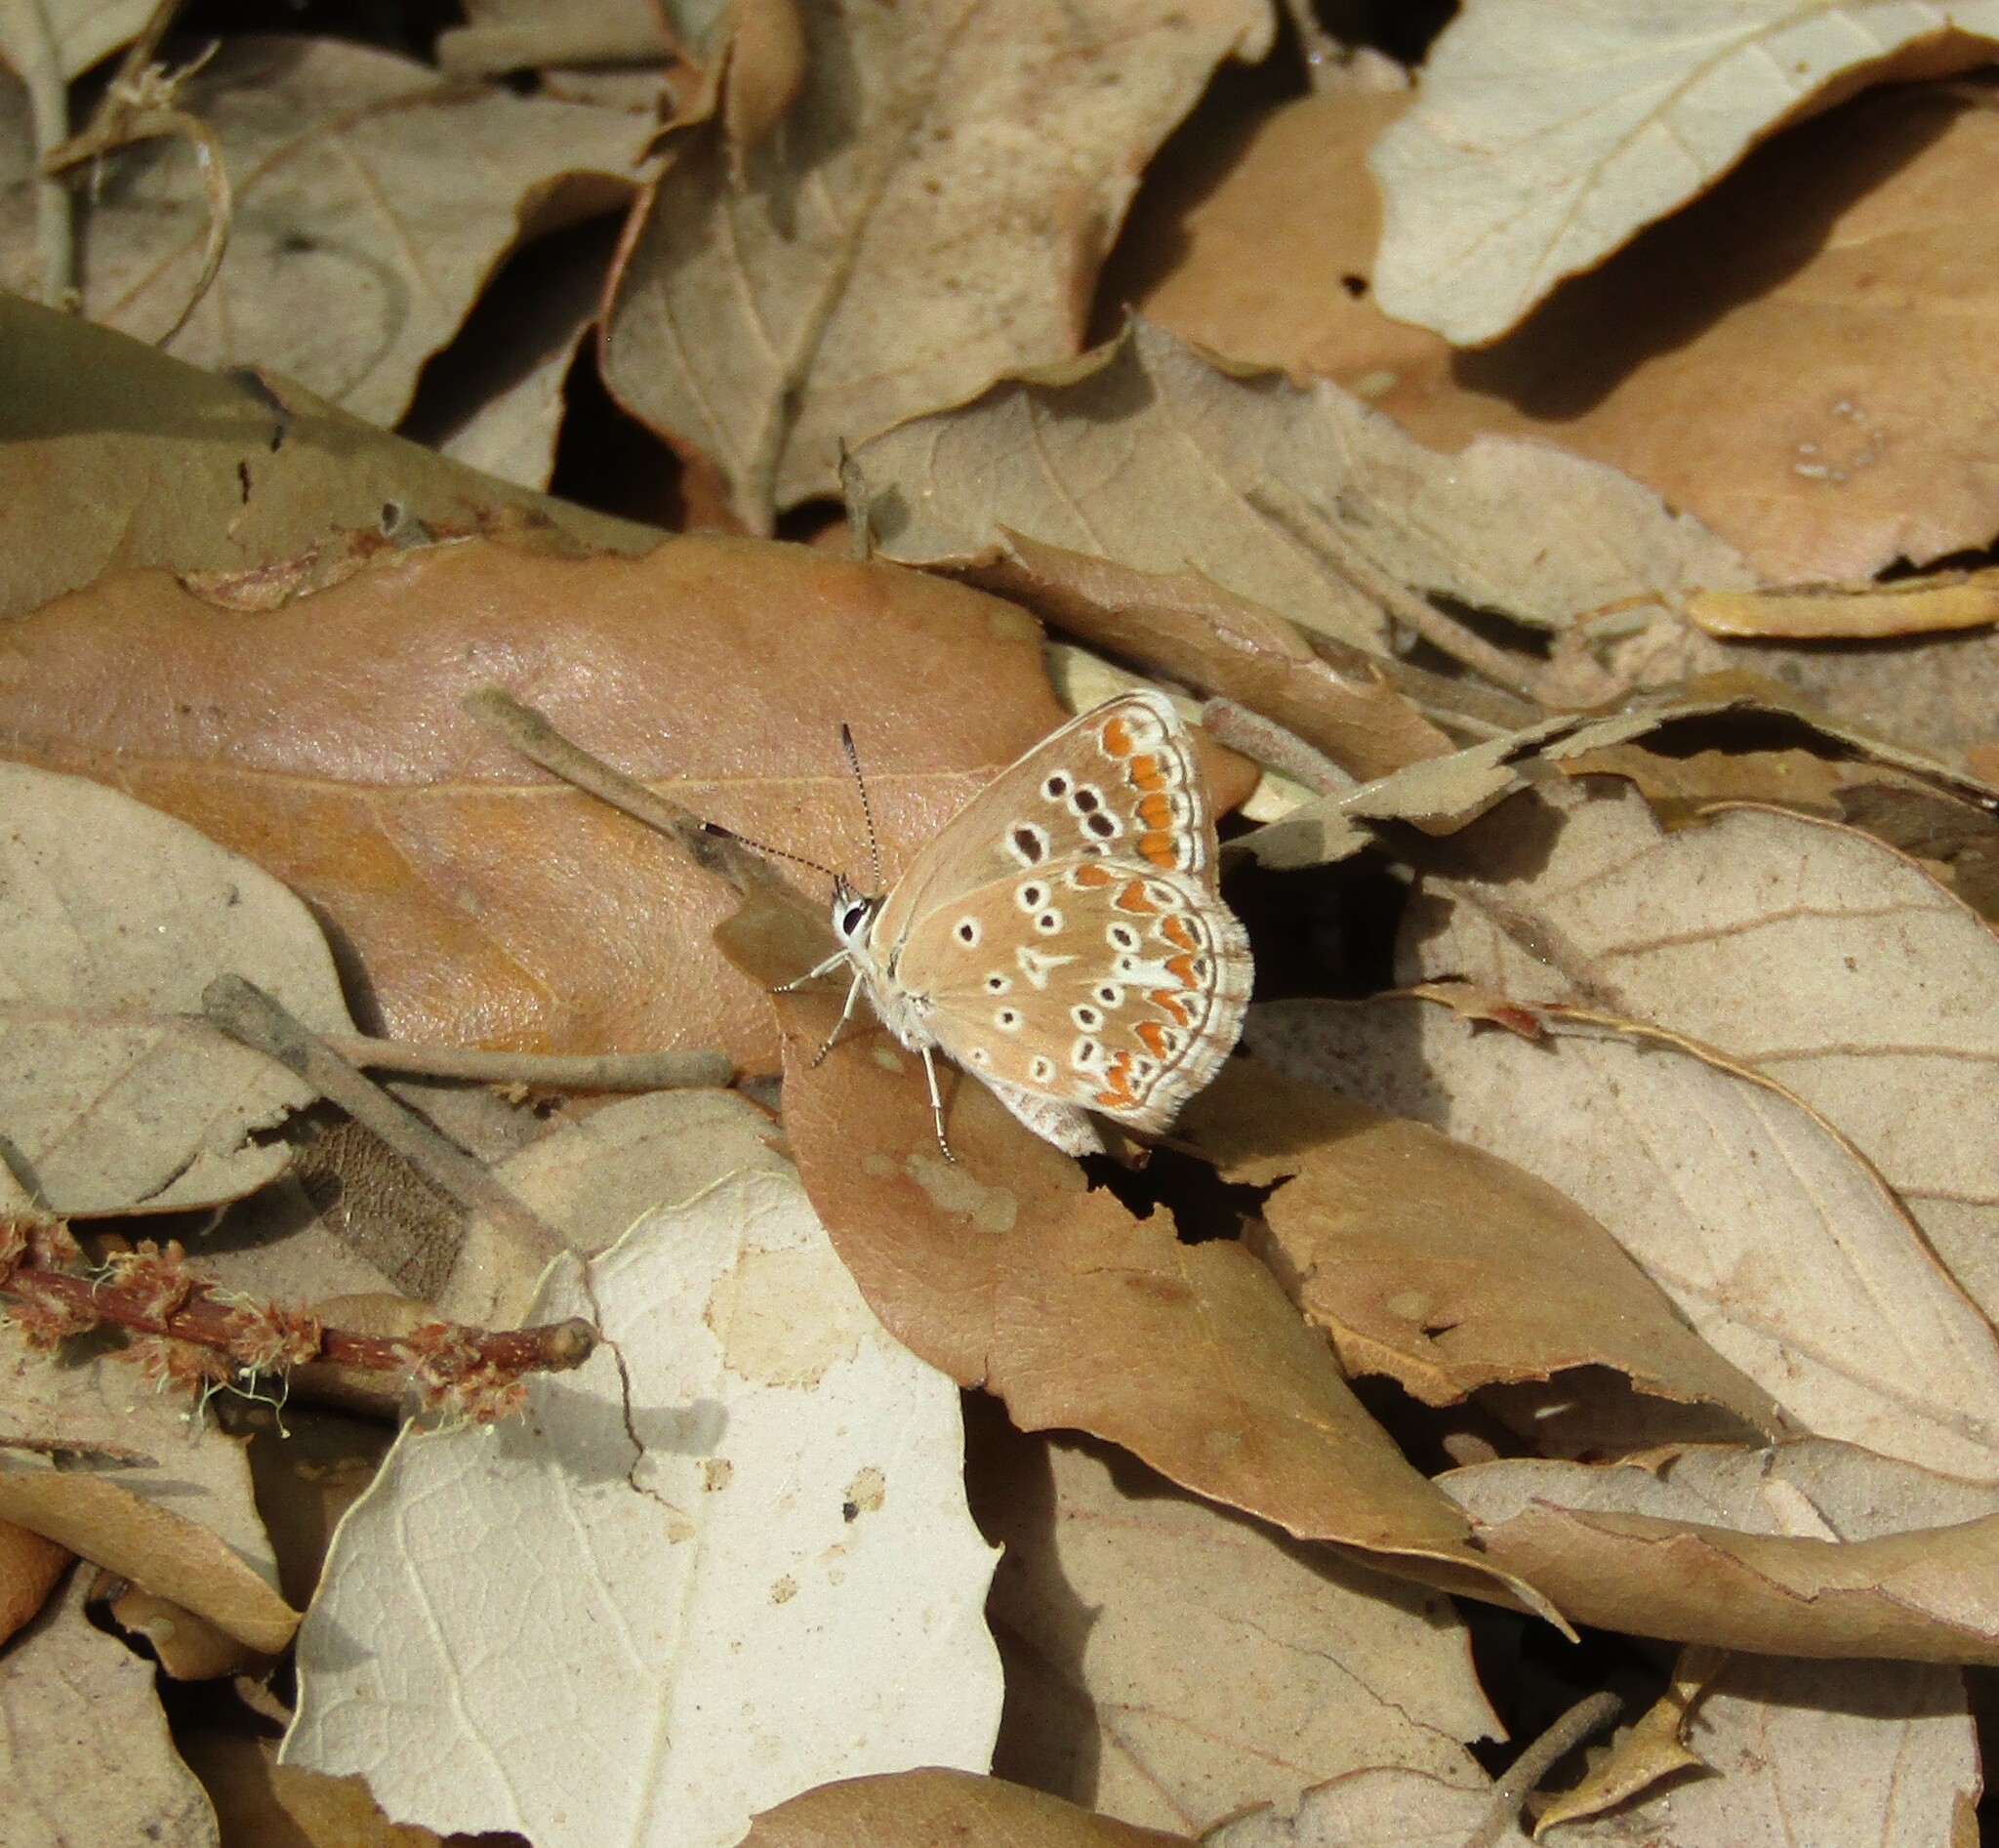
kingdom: Animalia
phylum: Arthropoda
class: Insecta
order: Lepidoptera
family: Lycaenidae
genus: Aricia
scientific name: Aricia cramera
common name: Eschscholtz´s brown  argus
